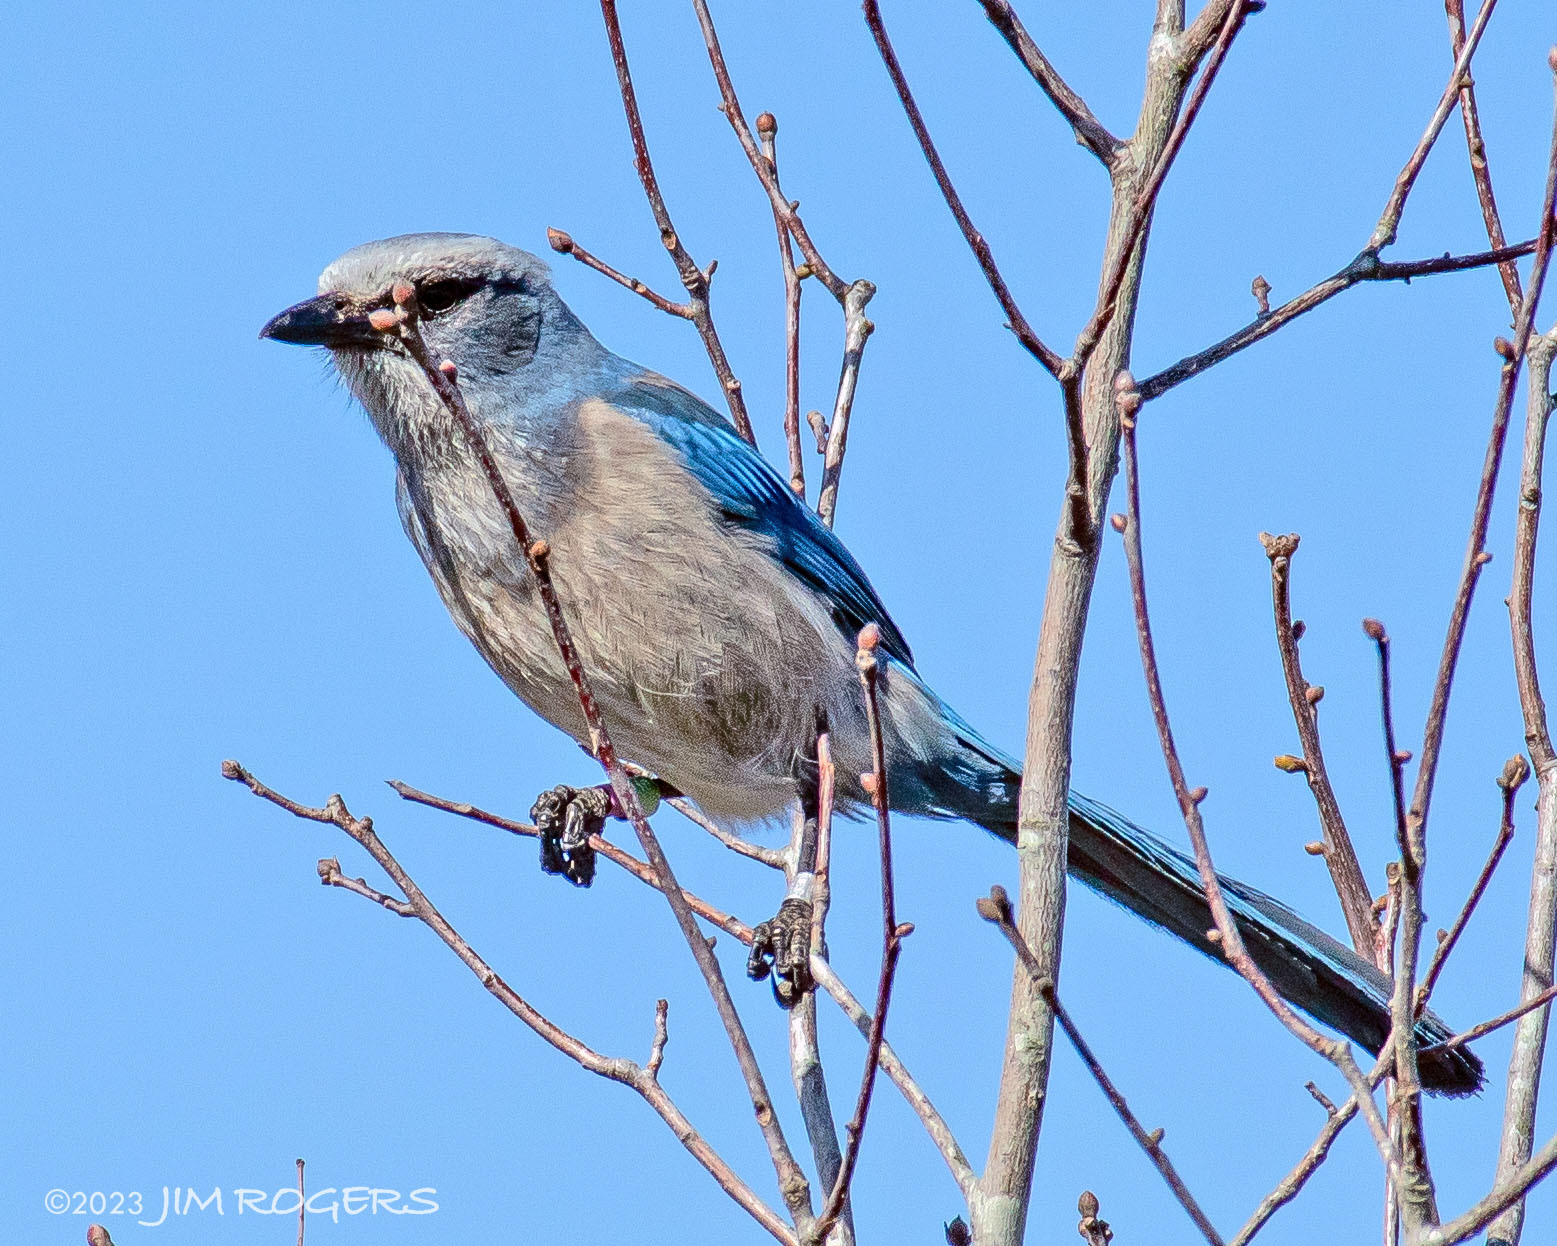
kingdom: Animalia
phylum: Chordata
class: Aves
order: Passeriformes
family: Corvidae
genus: Aphelocoma
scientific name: Aphelocoma coerulescens
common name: Florida scrub jay
